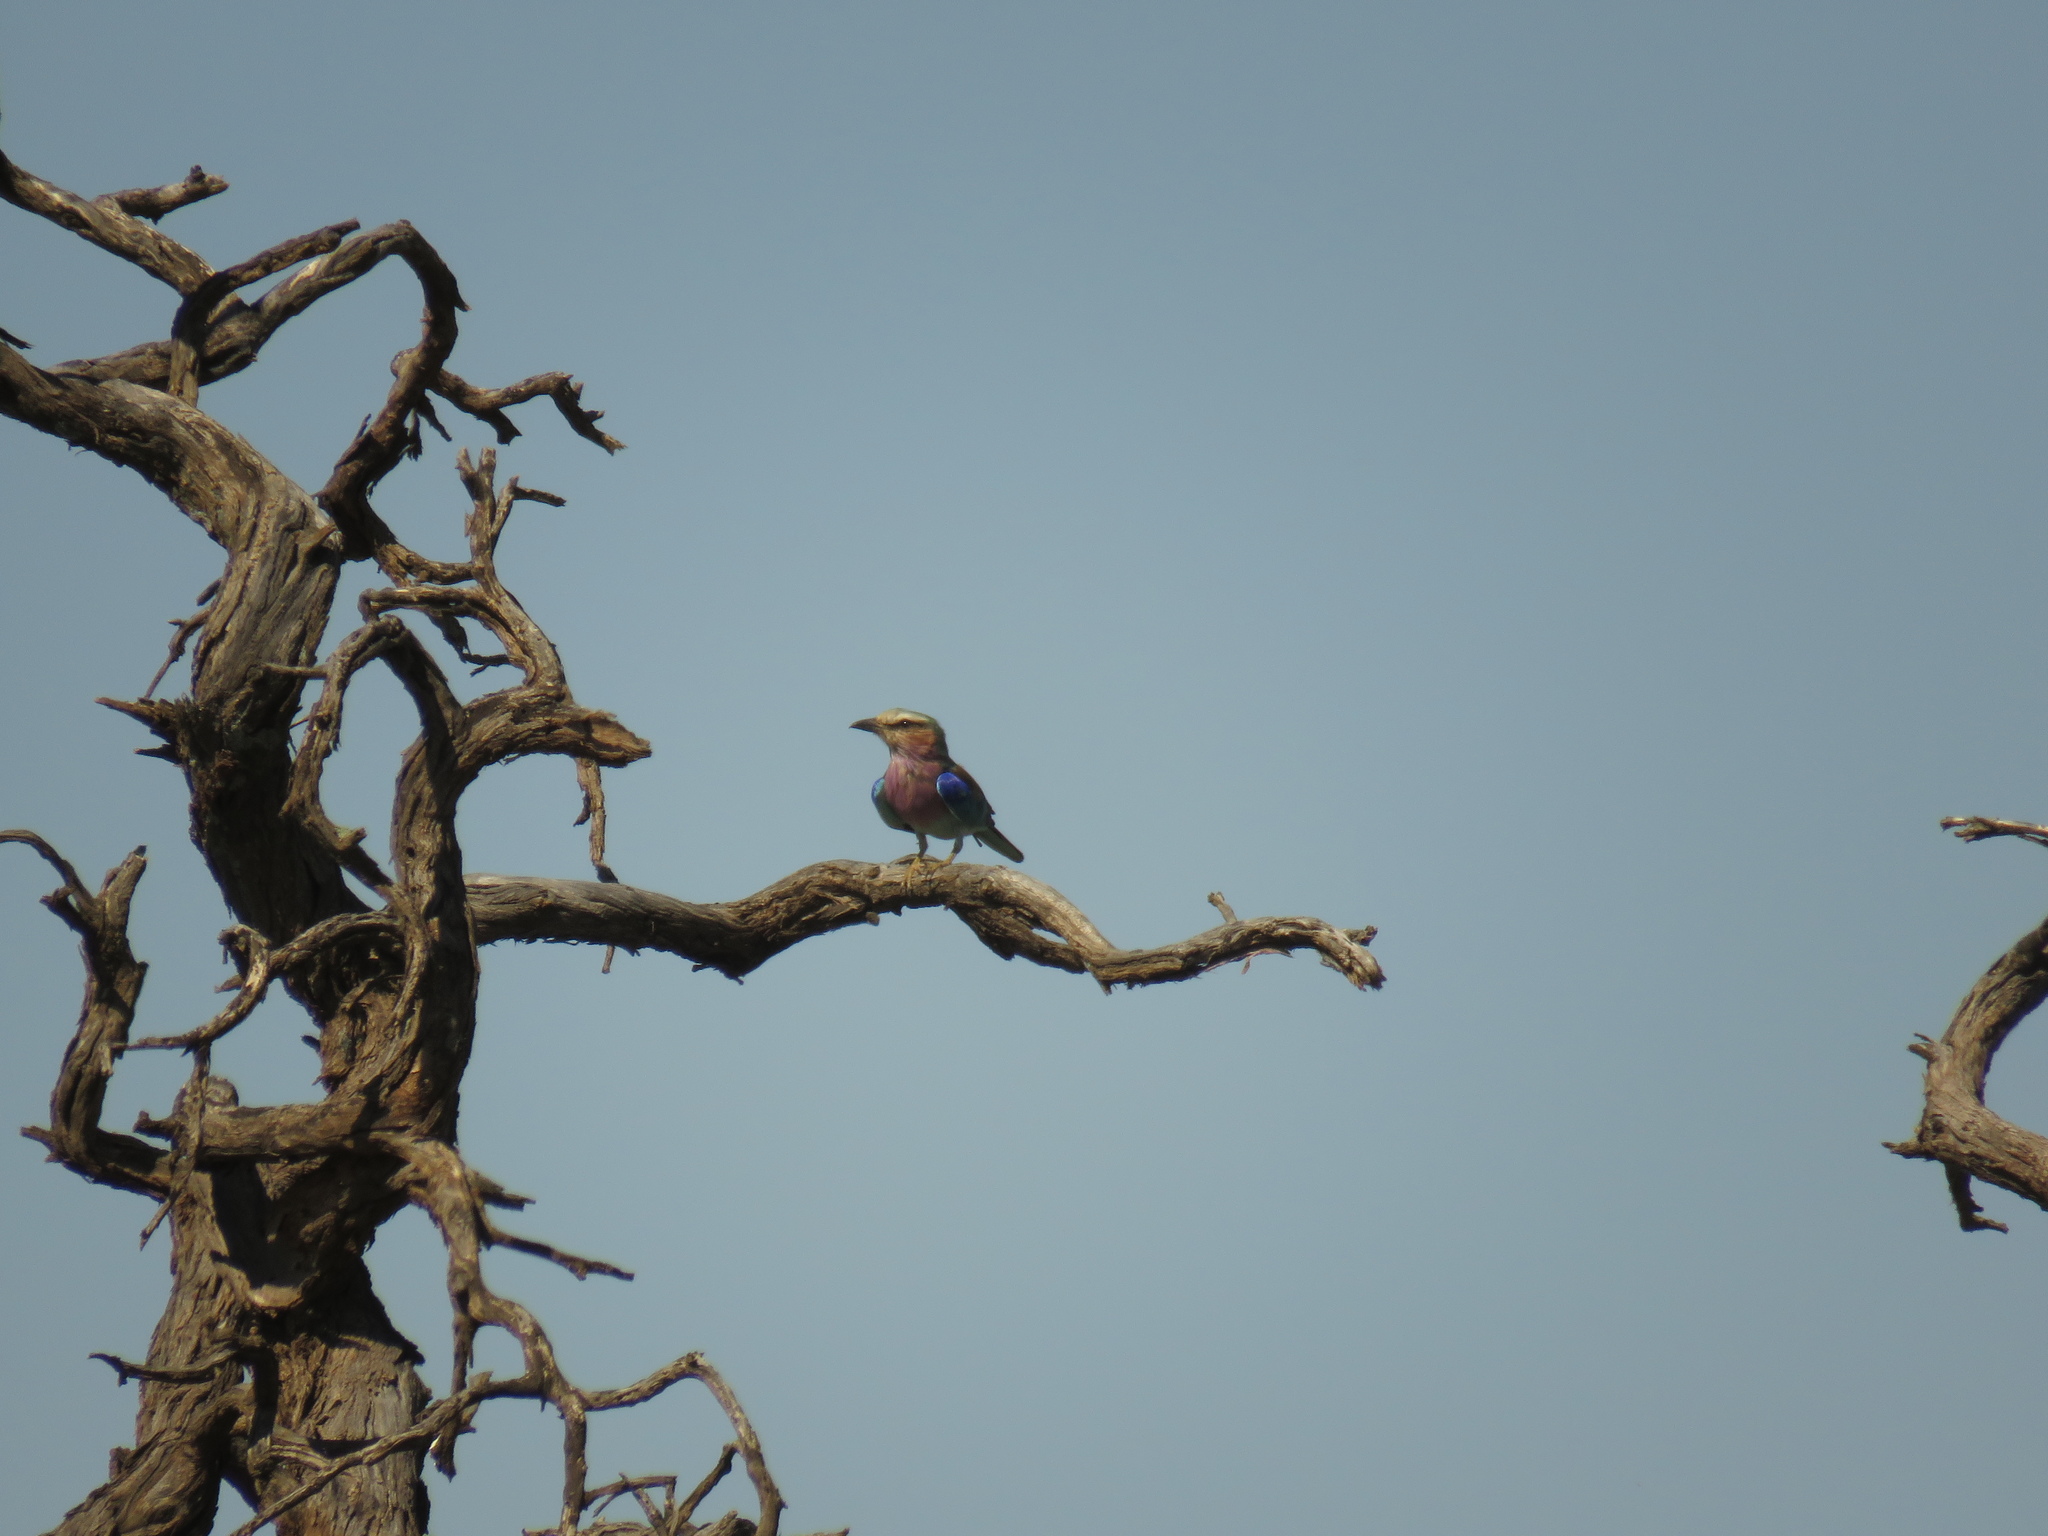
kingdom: Animalia
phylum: Chordata
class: Aves
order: Coraciiformes
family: Coraciidae
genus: Coracias
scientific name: Coracias caudatus
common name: Lilac-breasted roller
